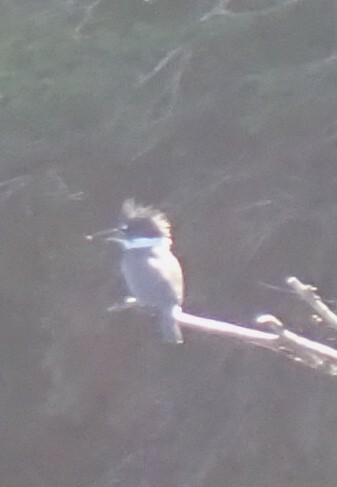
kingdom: Animalia
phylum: Chordata
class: Aves
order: Coraciiformes
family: Alcedinidae
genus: Megaceryle
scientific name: Megaceryle alcyon
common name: Belted kingfisher
